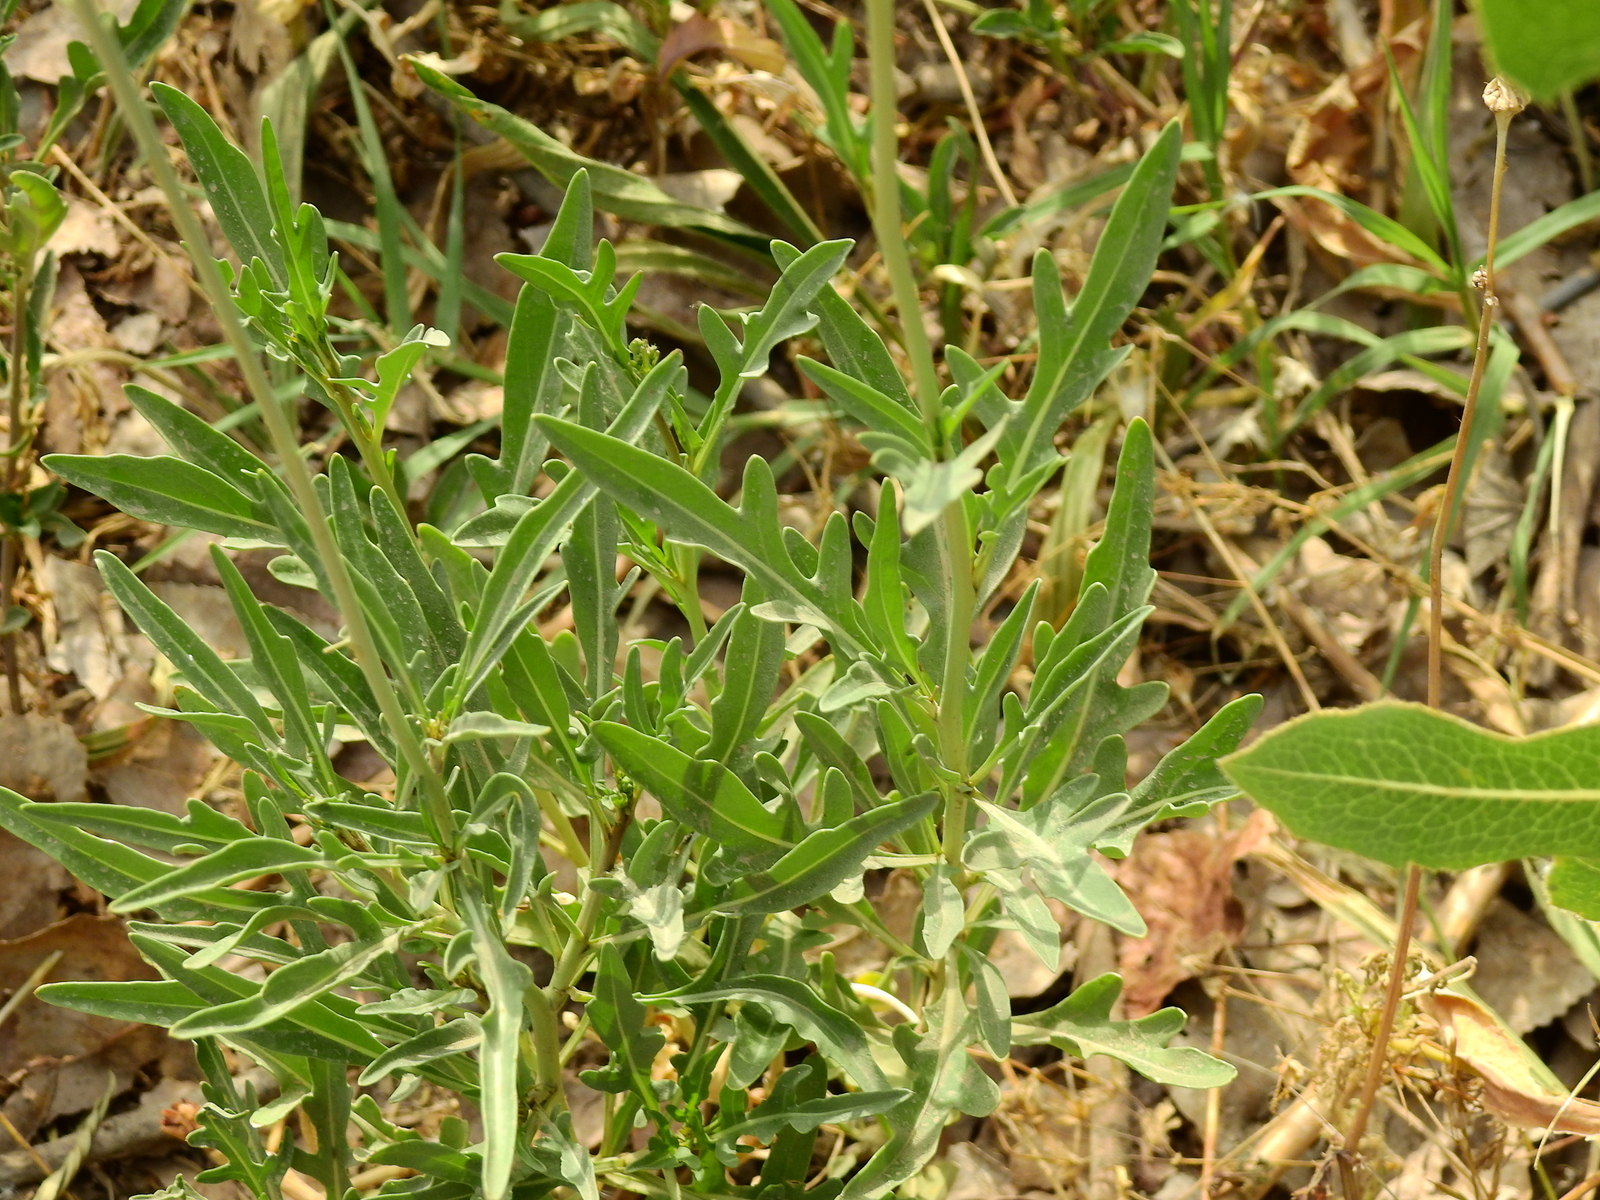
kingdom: Plantae
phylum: Tracheophyta
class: Magnoliopsida
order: Brassicales
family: Brassicaceae
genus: Diplotaxis
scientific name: Diplotaxis tenuifolia
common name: Perennial wall-rocket
